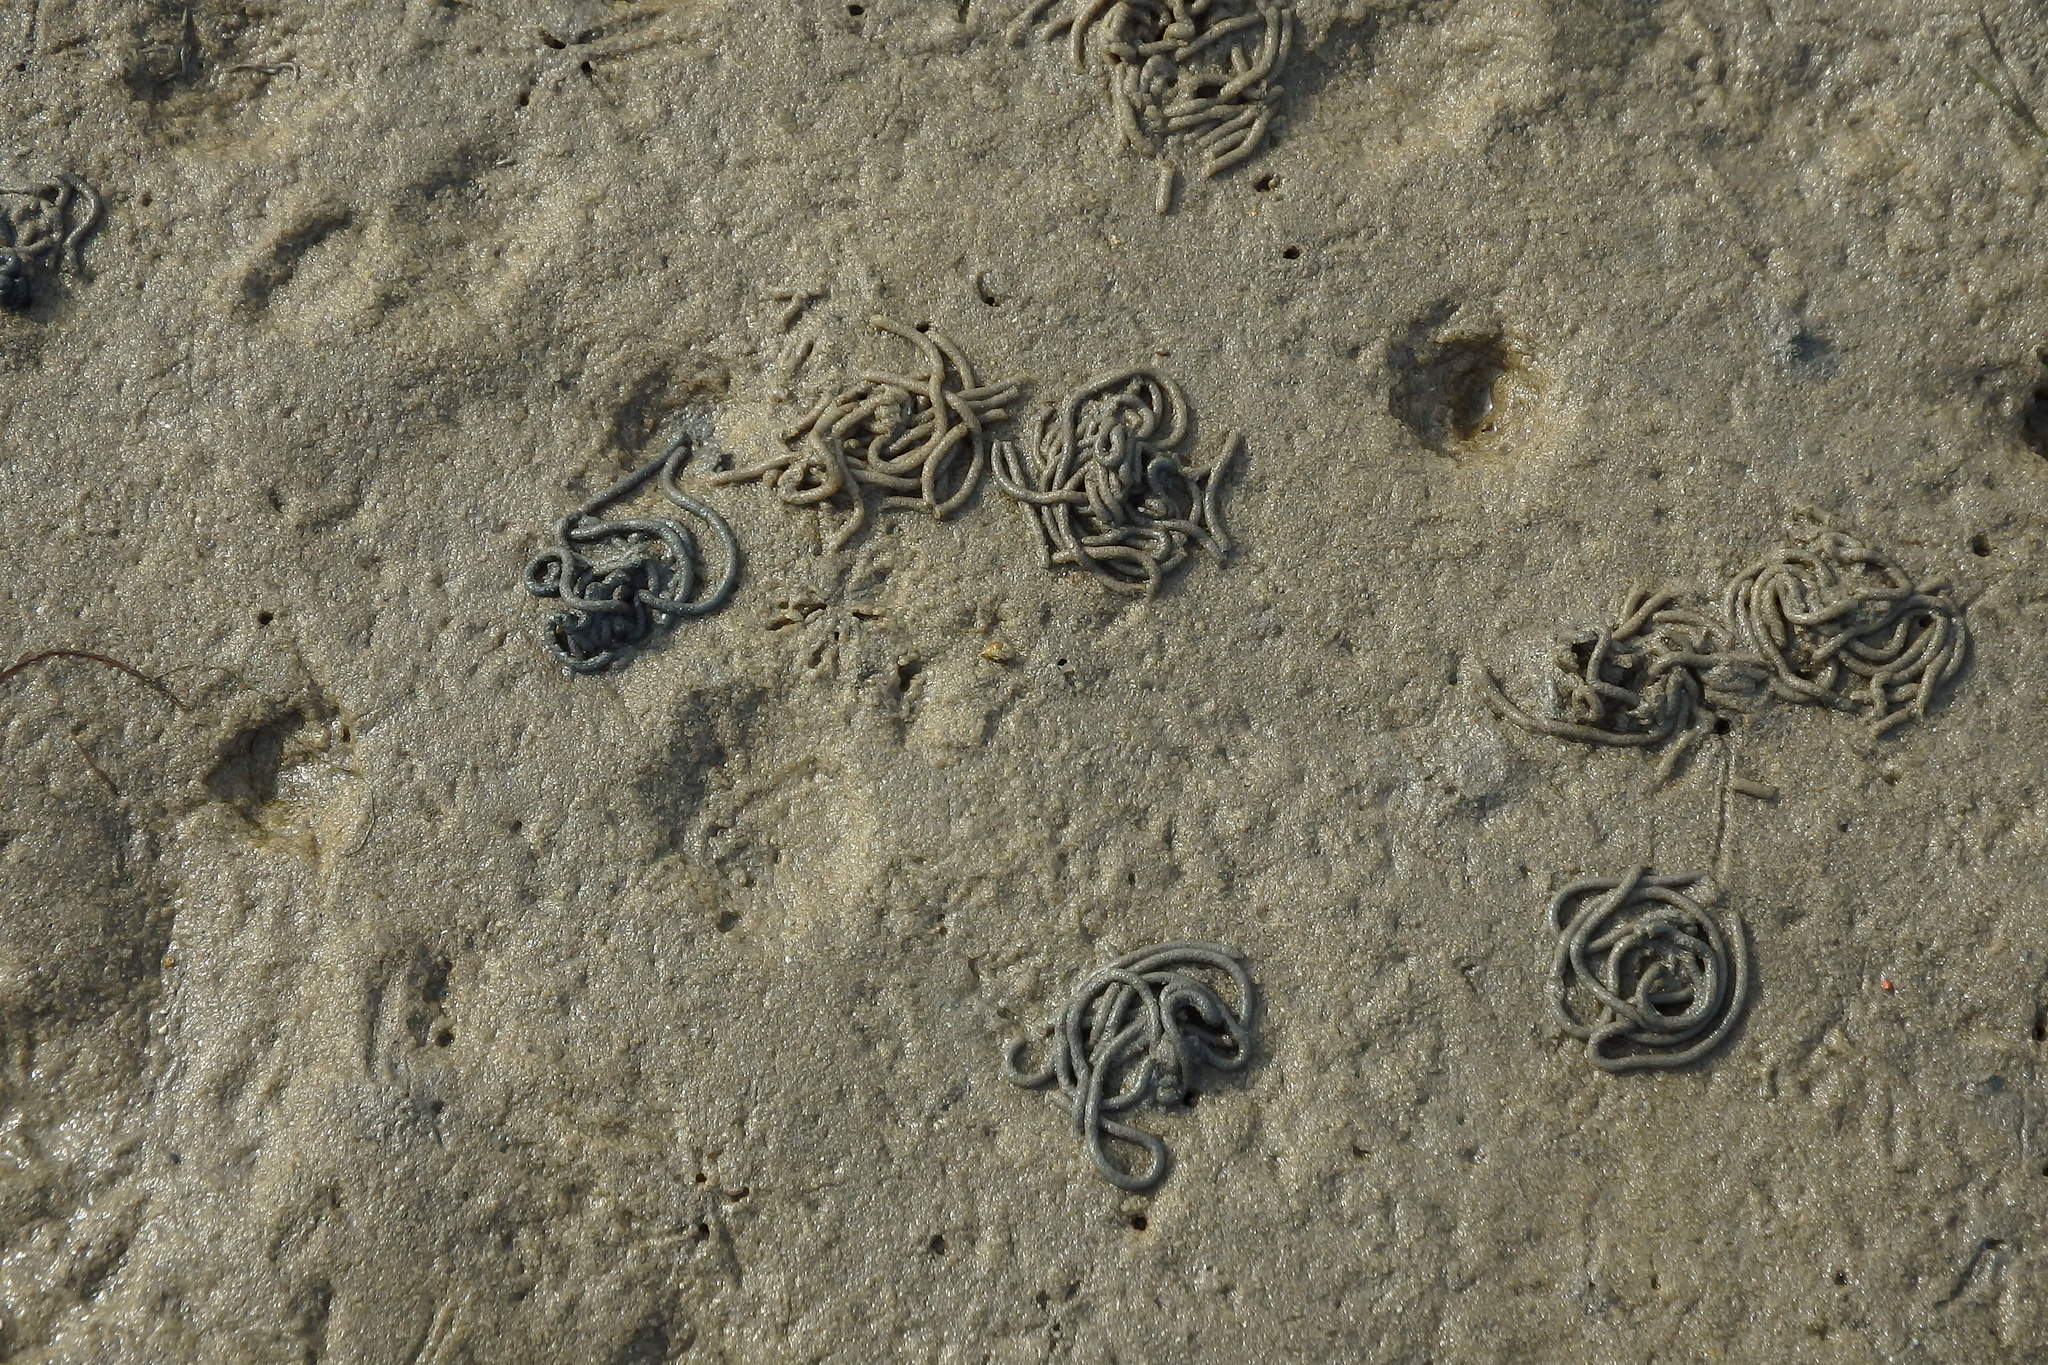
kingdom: Animalia
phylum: Annelida
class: Polychaeta
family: Arenicolidae
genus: Arenicola
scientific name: Arenicola marina
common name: Blow lugworm
